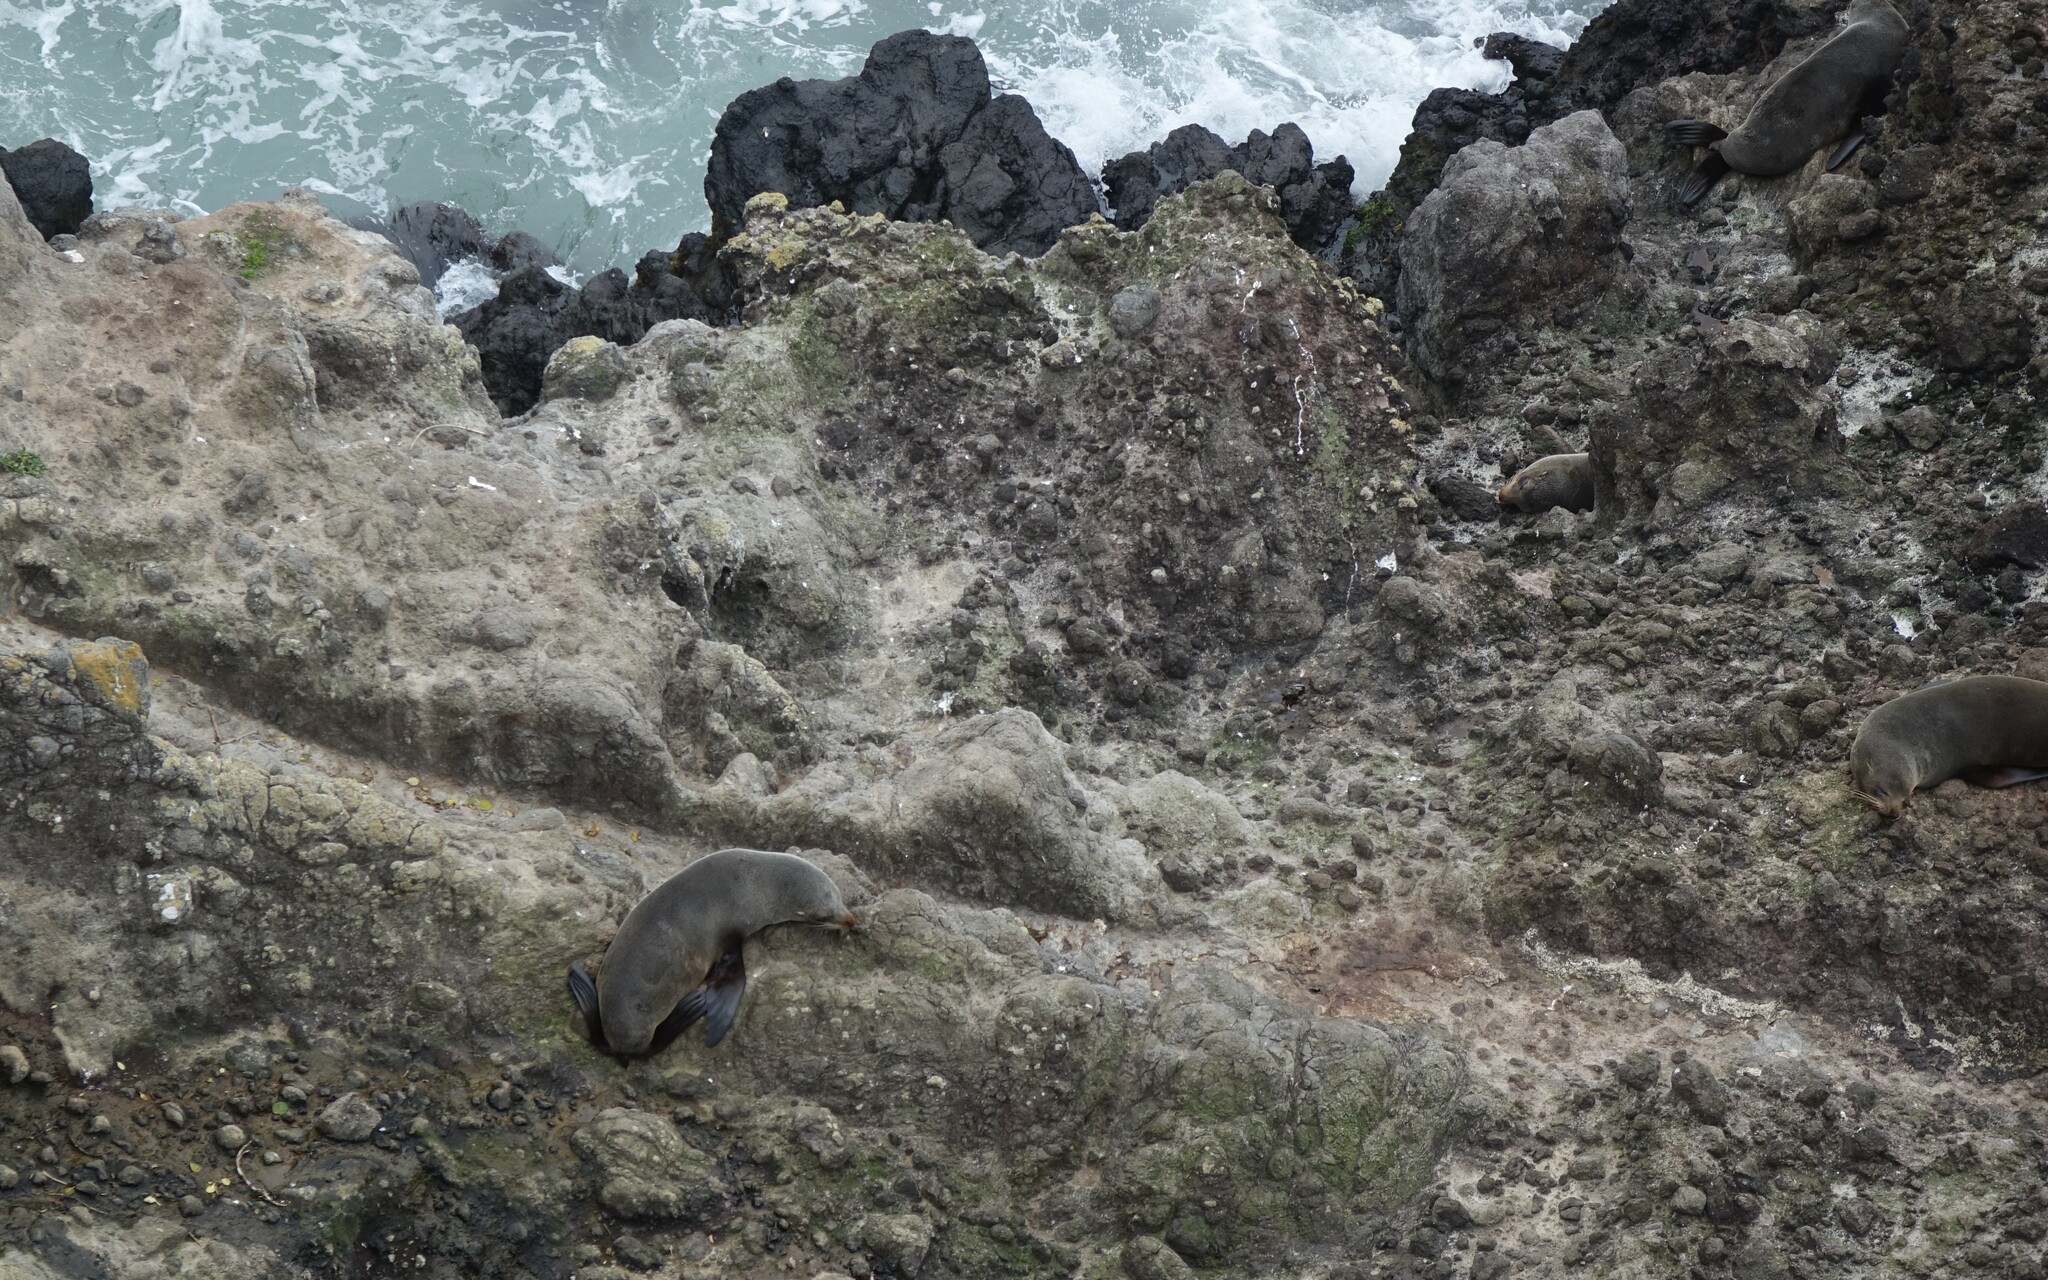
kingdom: Animalia
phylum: Chordata
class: Mammalia
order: Carnivora
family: Otariidae
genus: Arctocephalus
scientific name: Arctocephalus forsteri
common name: New zealand fur seal
